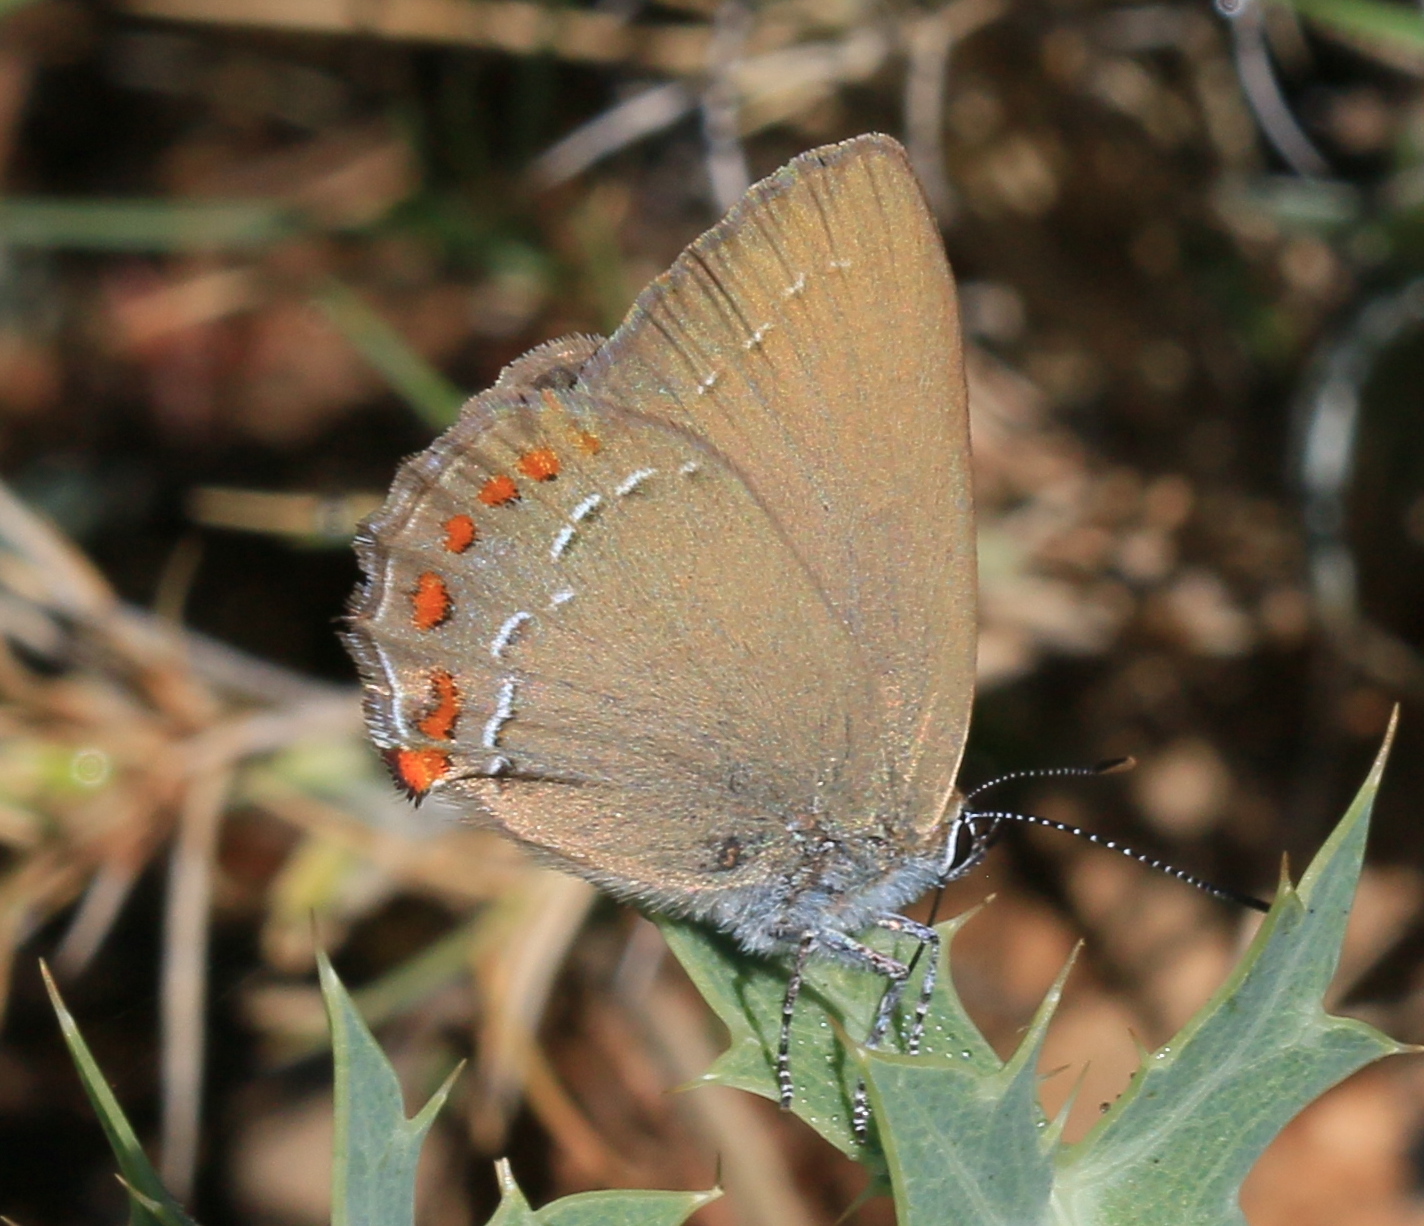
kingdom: Animalia
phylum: Arthropoda
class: Insecta
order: Lepidoptera
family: Lycaenidae
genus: Fixsenia
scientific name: Fixsenia esculi
